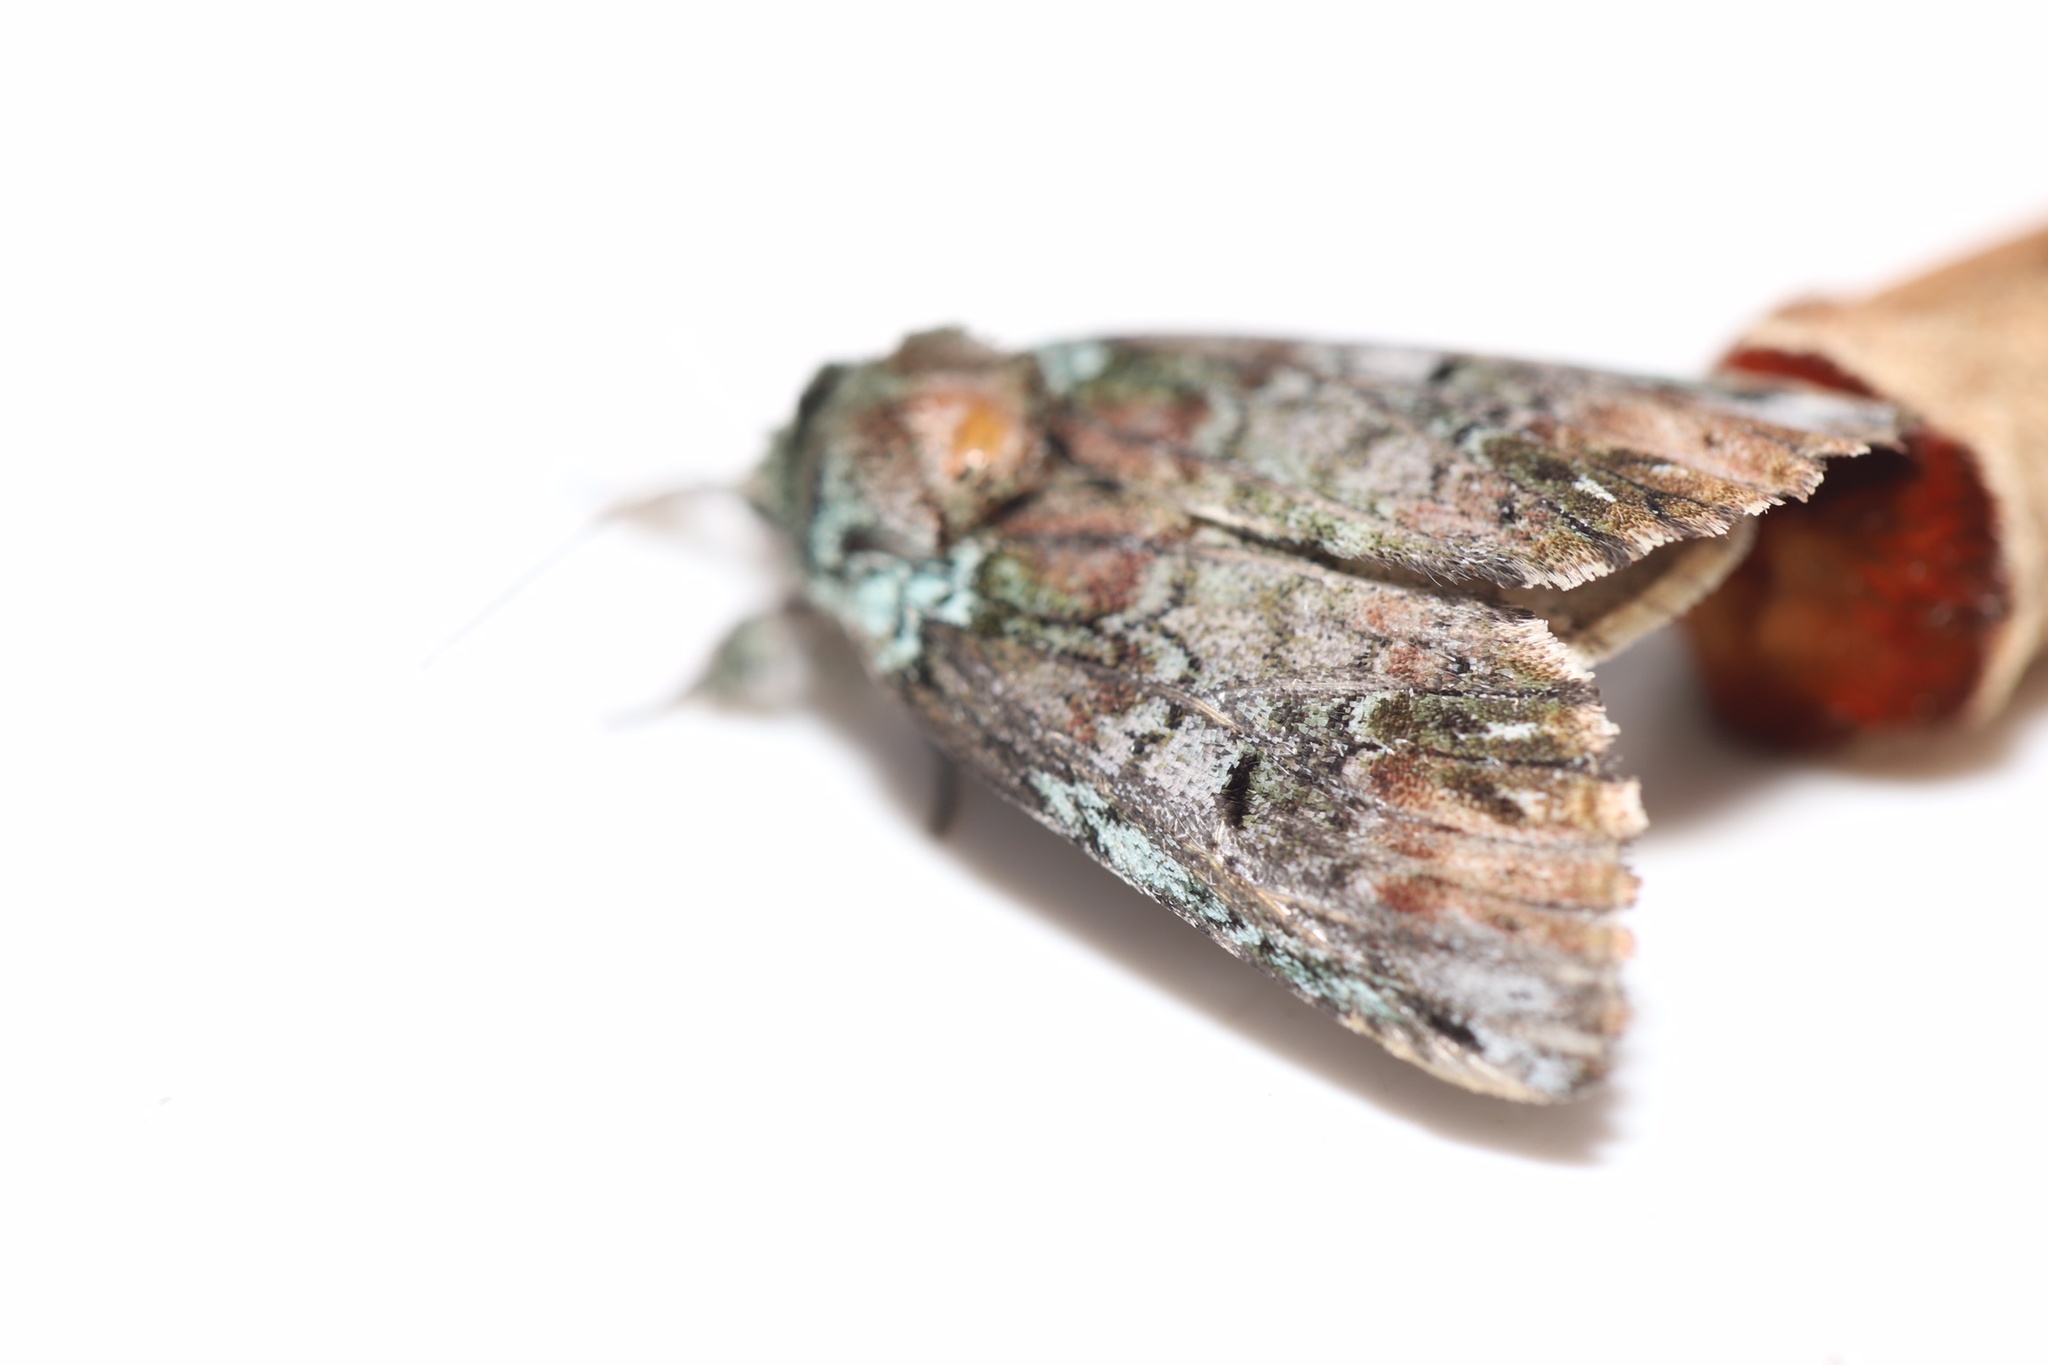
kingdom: Animalia
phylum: Arthropoda
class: Insecta
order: Lepidoptera
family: Notodontidae
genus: Schizura
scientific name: Schizura
